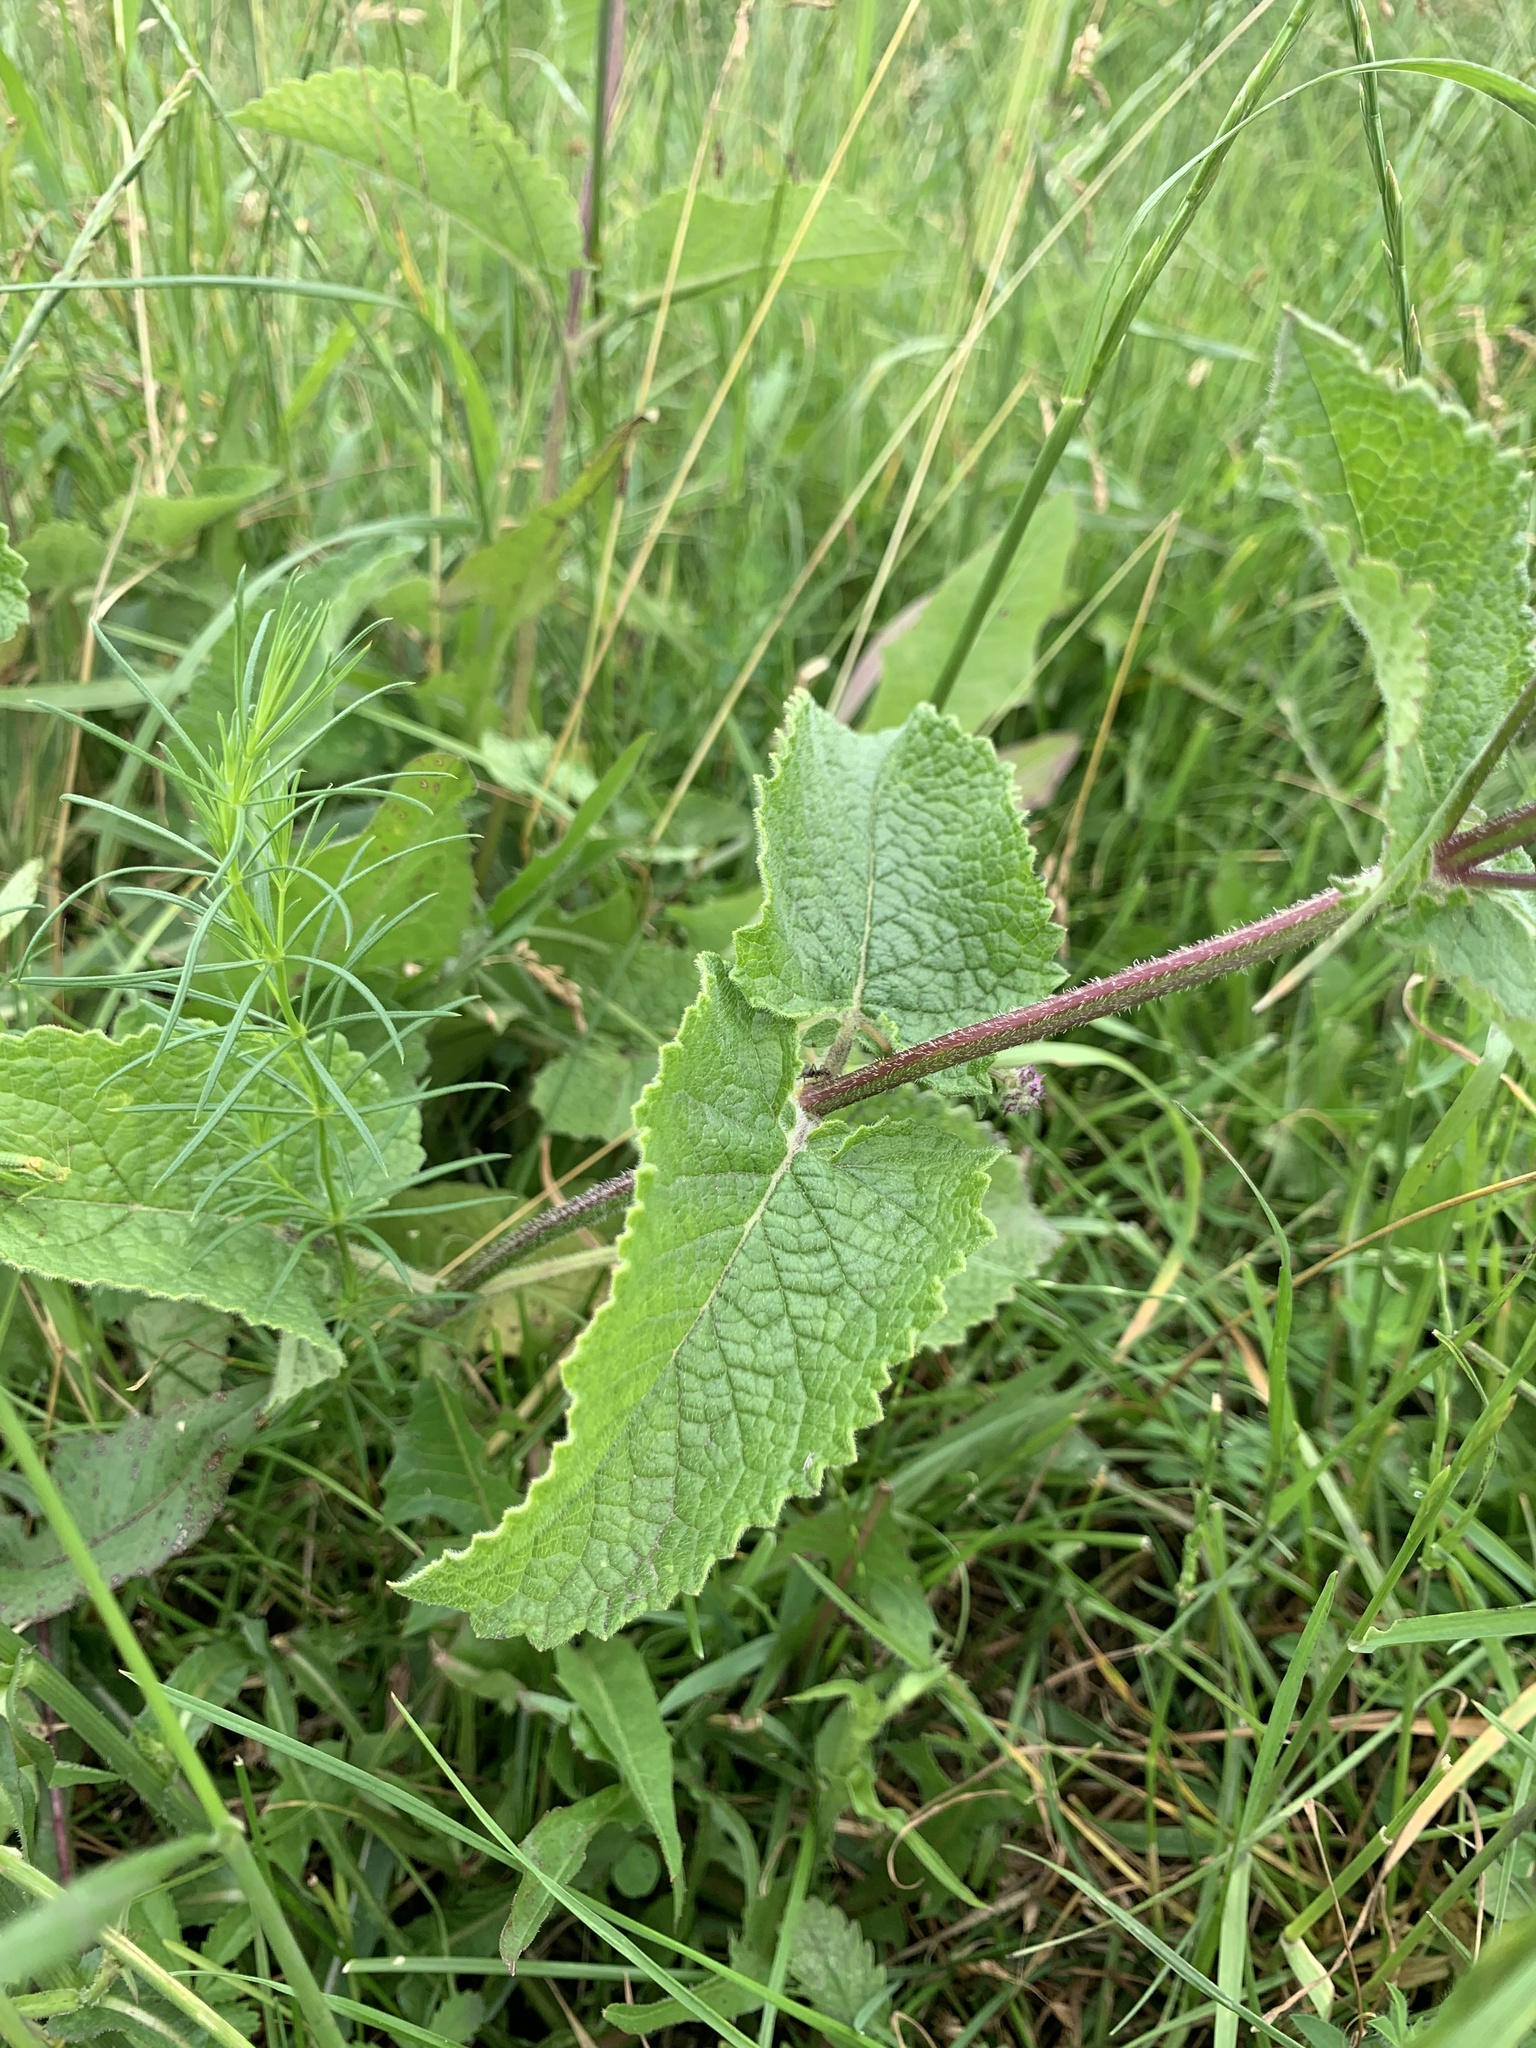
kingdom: Plantae
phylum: Tracheophyta
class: Magnoliopsida
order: Lamiales
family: Lamiaceae
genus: Salvia
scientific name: Salvia verticillata
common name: Whorled clary
